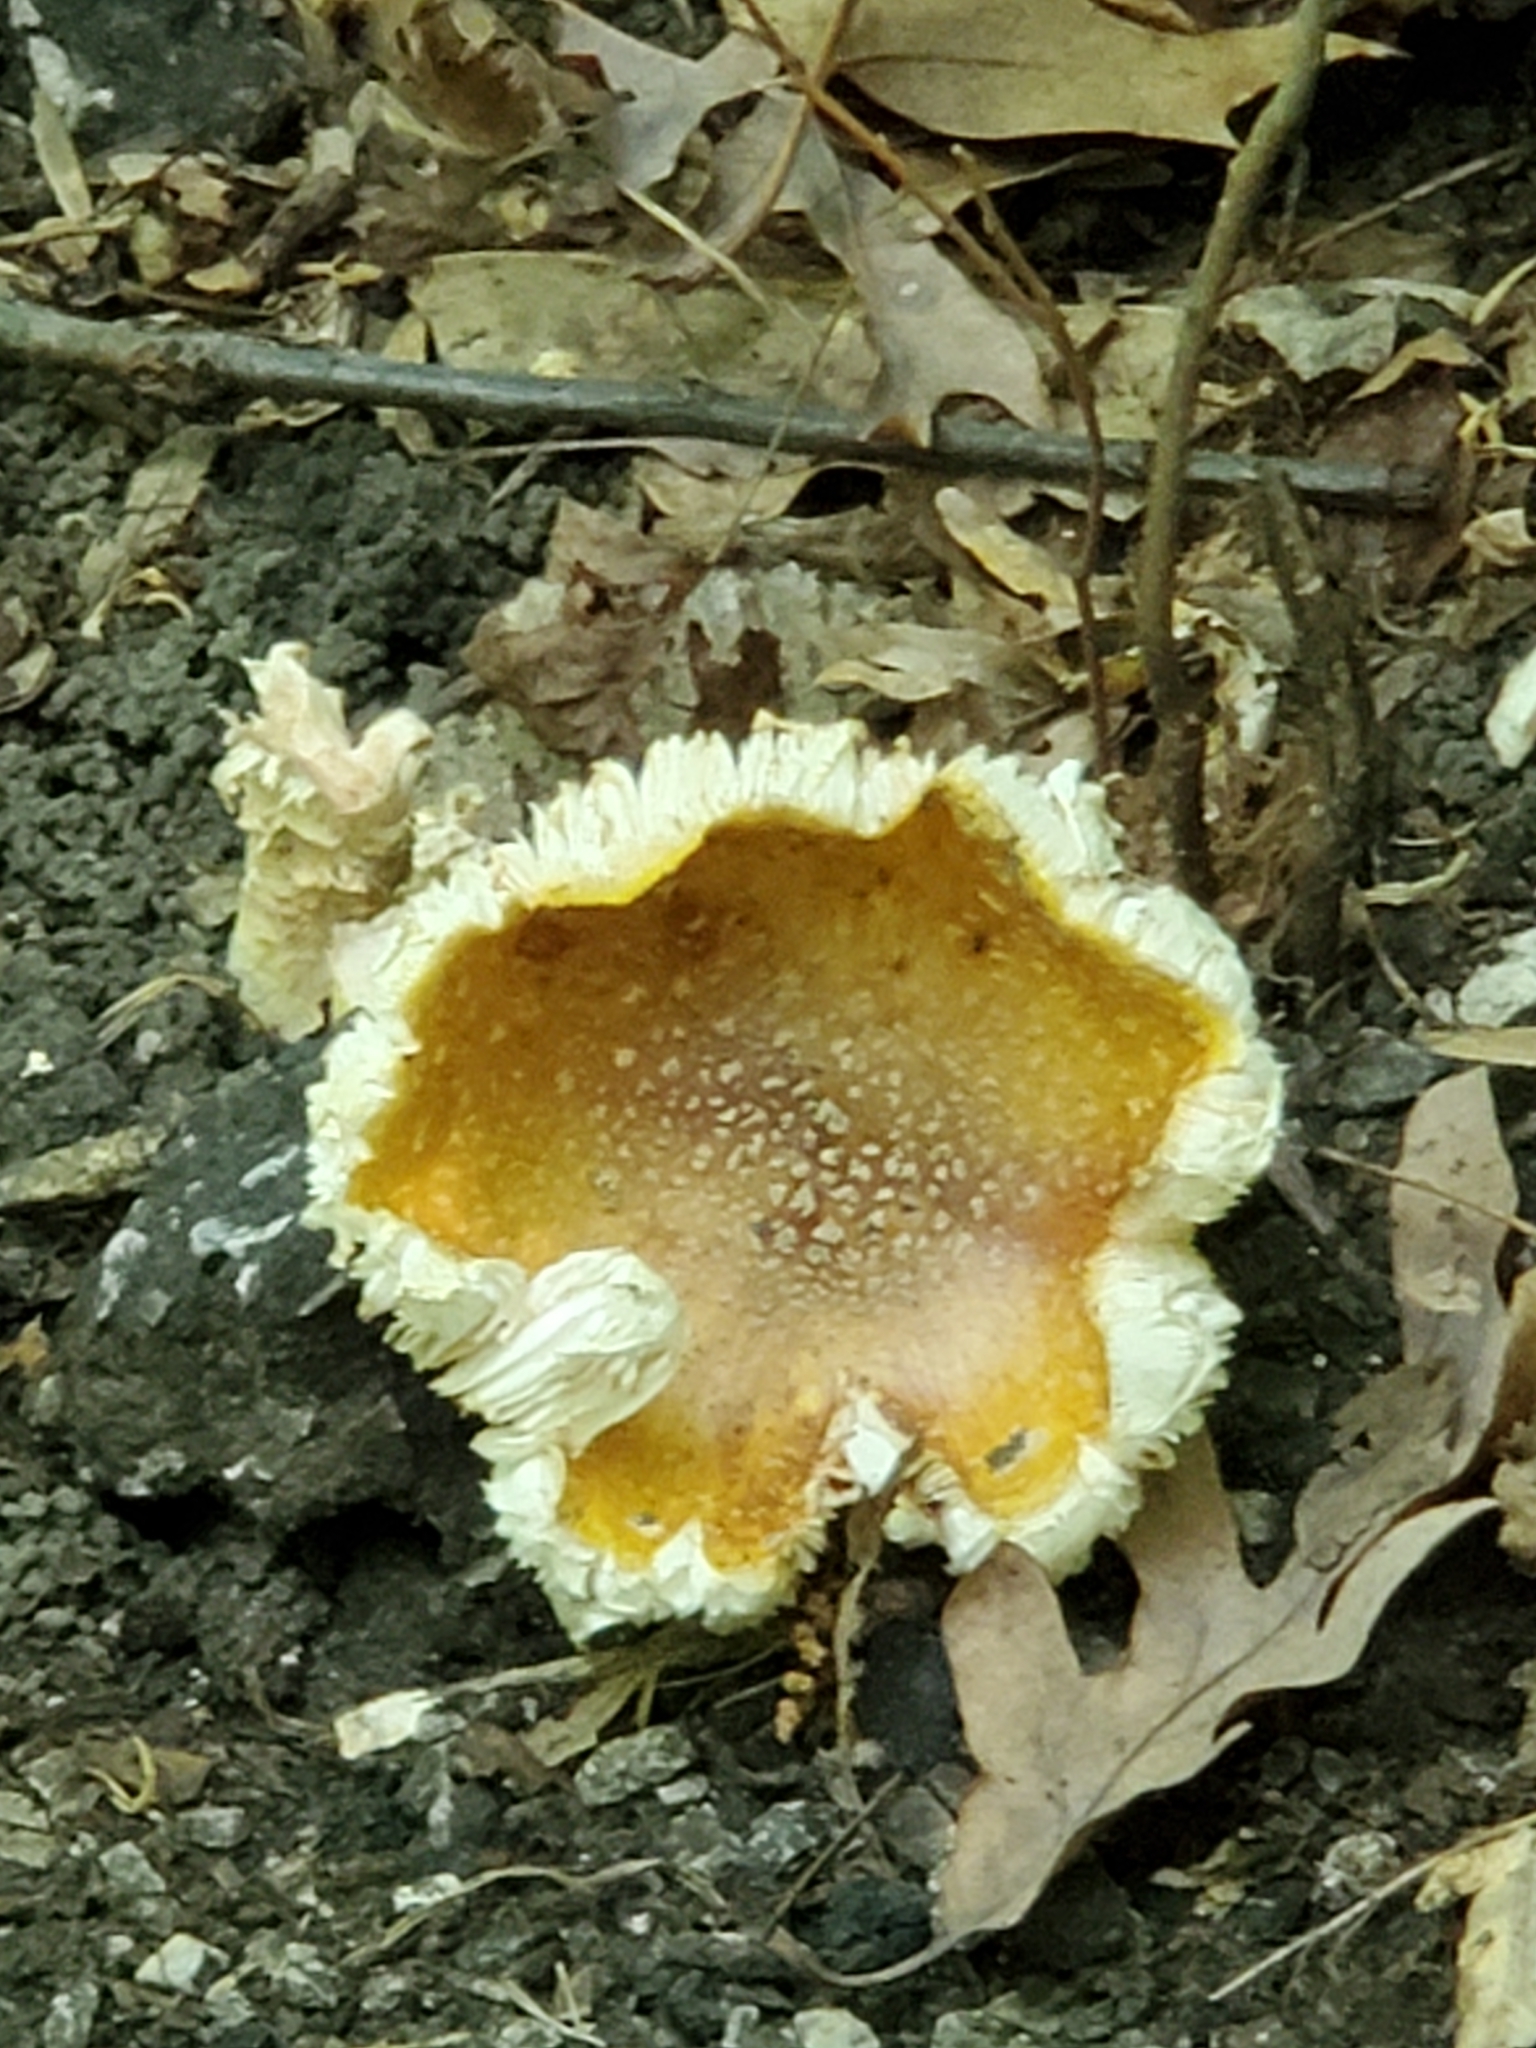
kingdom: Fungi
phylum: Basidiomycota
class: Agaricomycetes
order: Agaricales
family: Amanitaceae
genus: Amanita
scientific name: Amanita flavorubens
